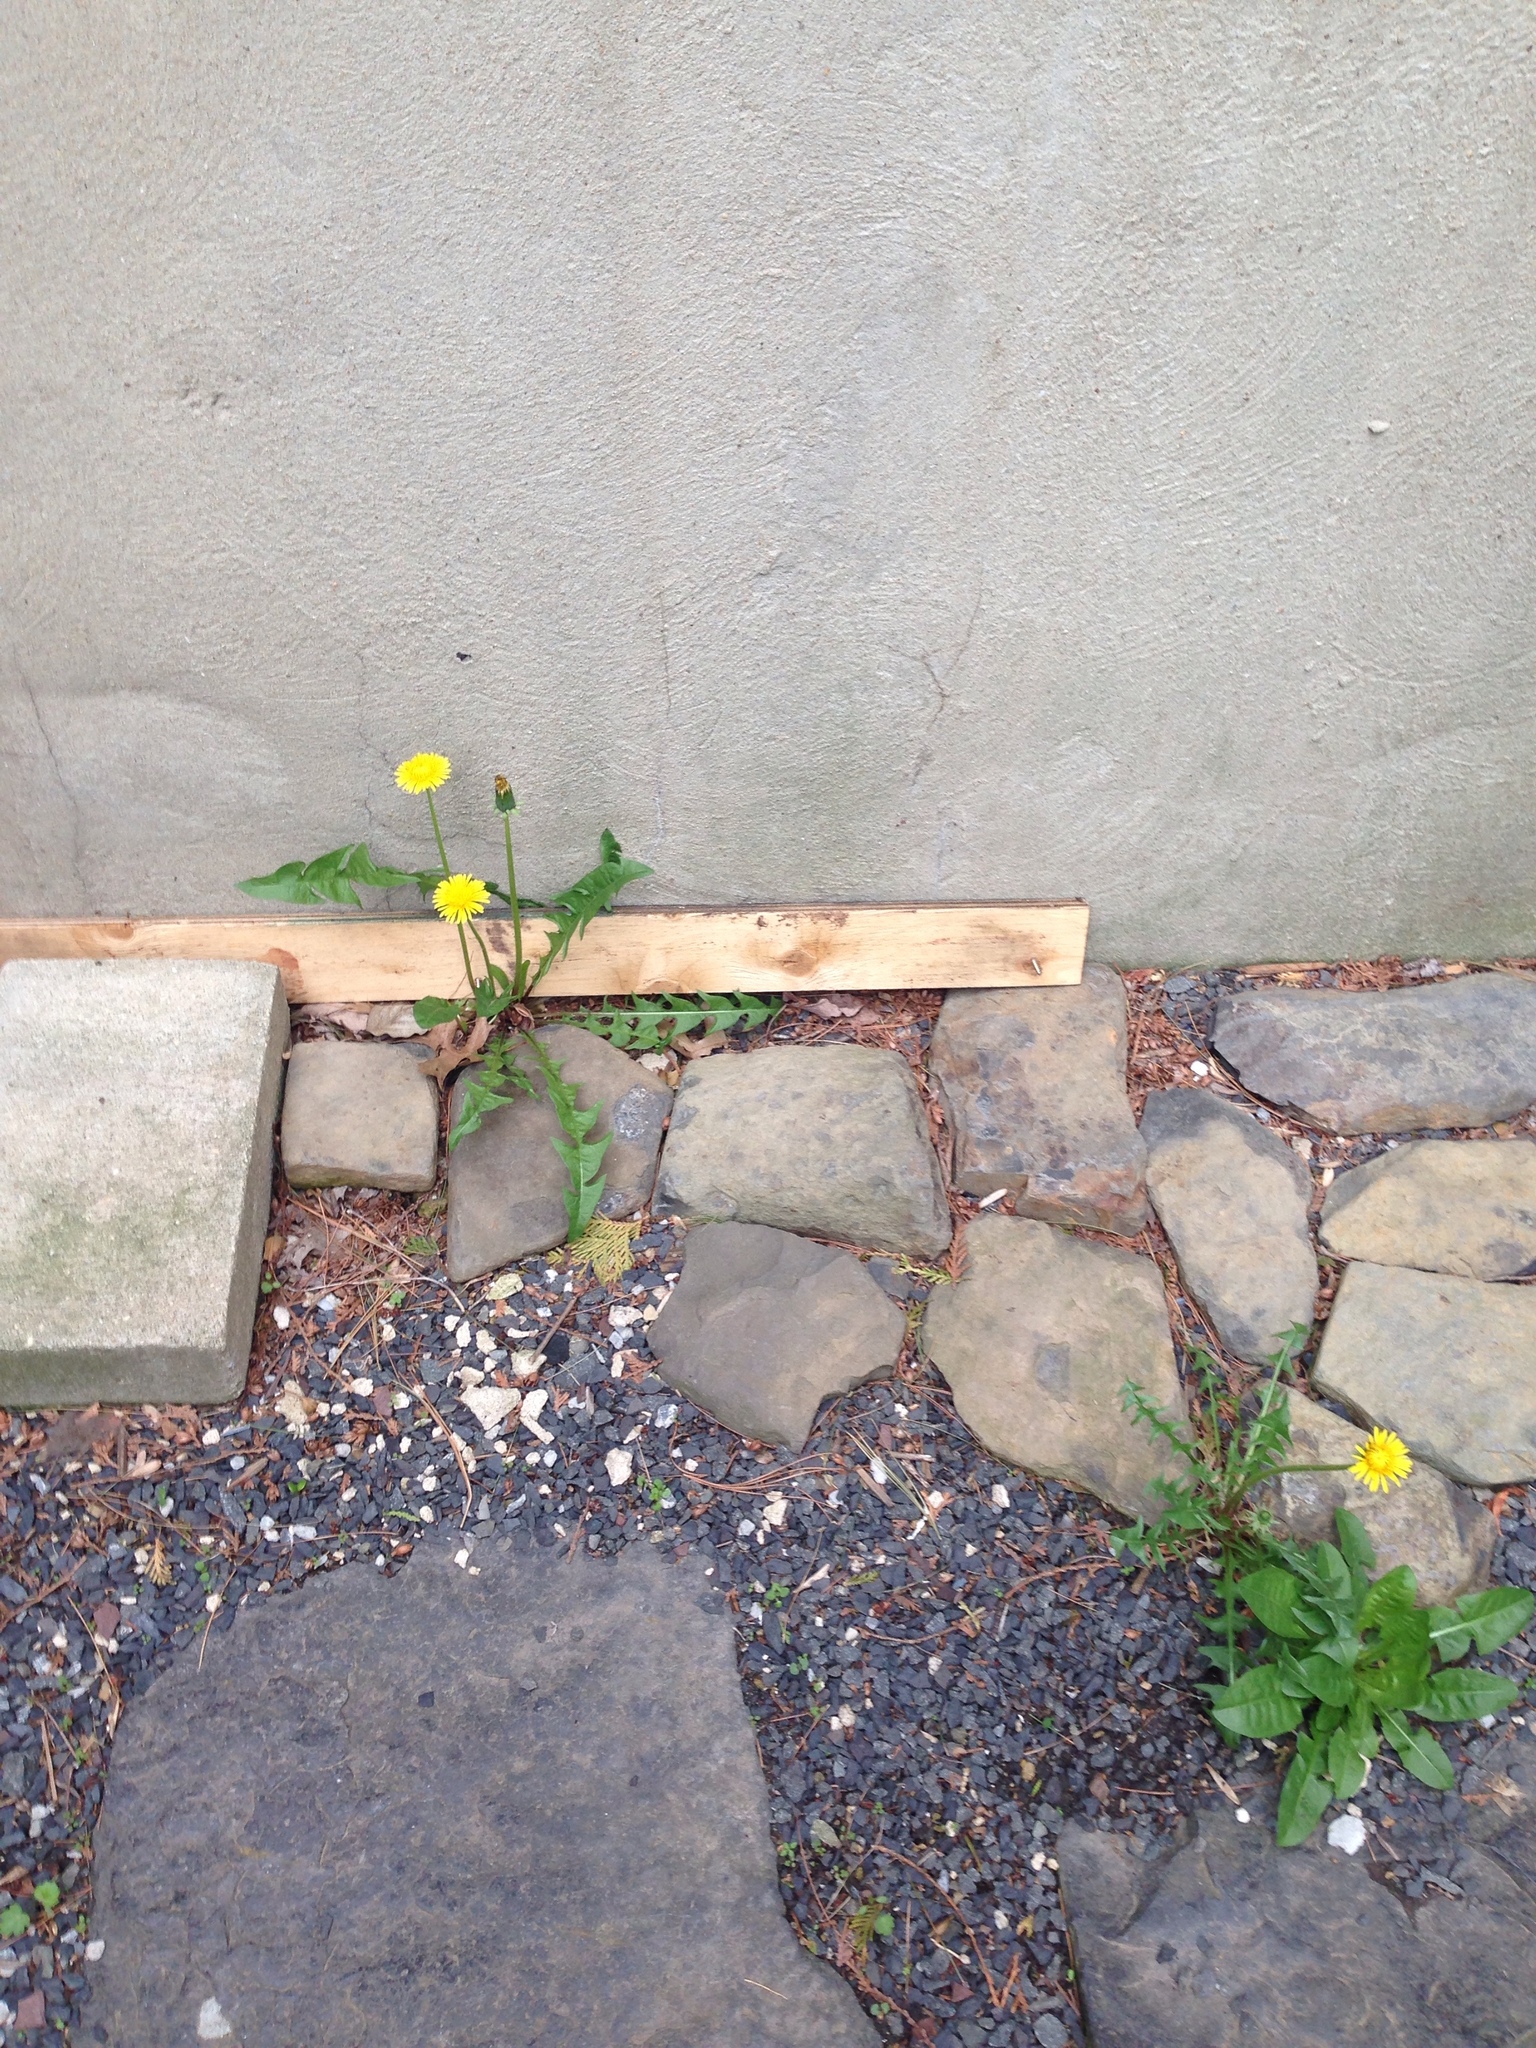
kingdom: Plantae
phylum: Tracheophyta
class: Magnoliopsida
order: Asterales
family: Asteraceae
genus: Taraxacum
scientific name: Taraxacum officinale
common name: Common dandelion
